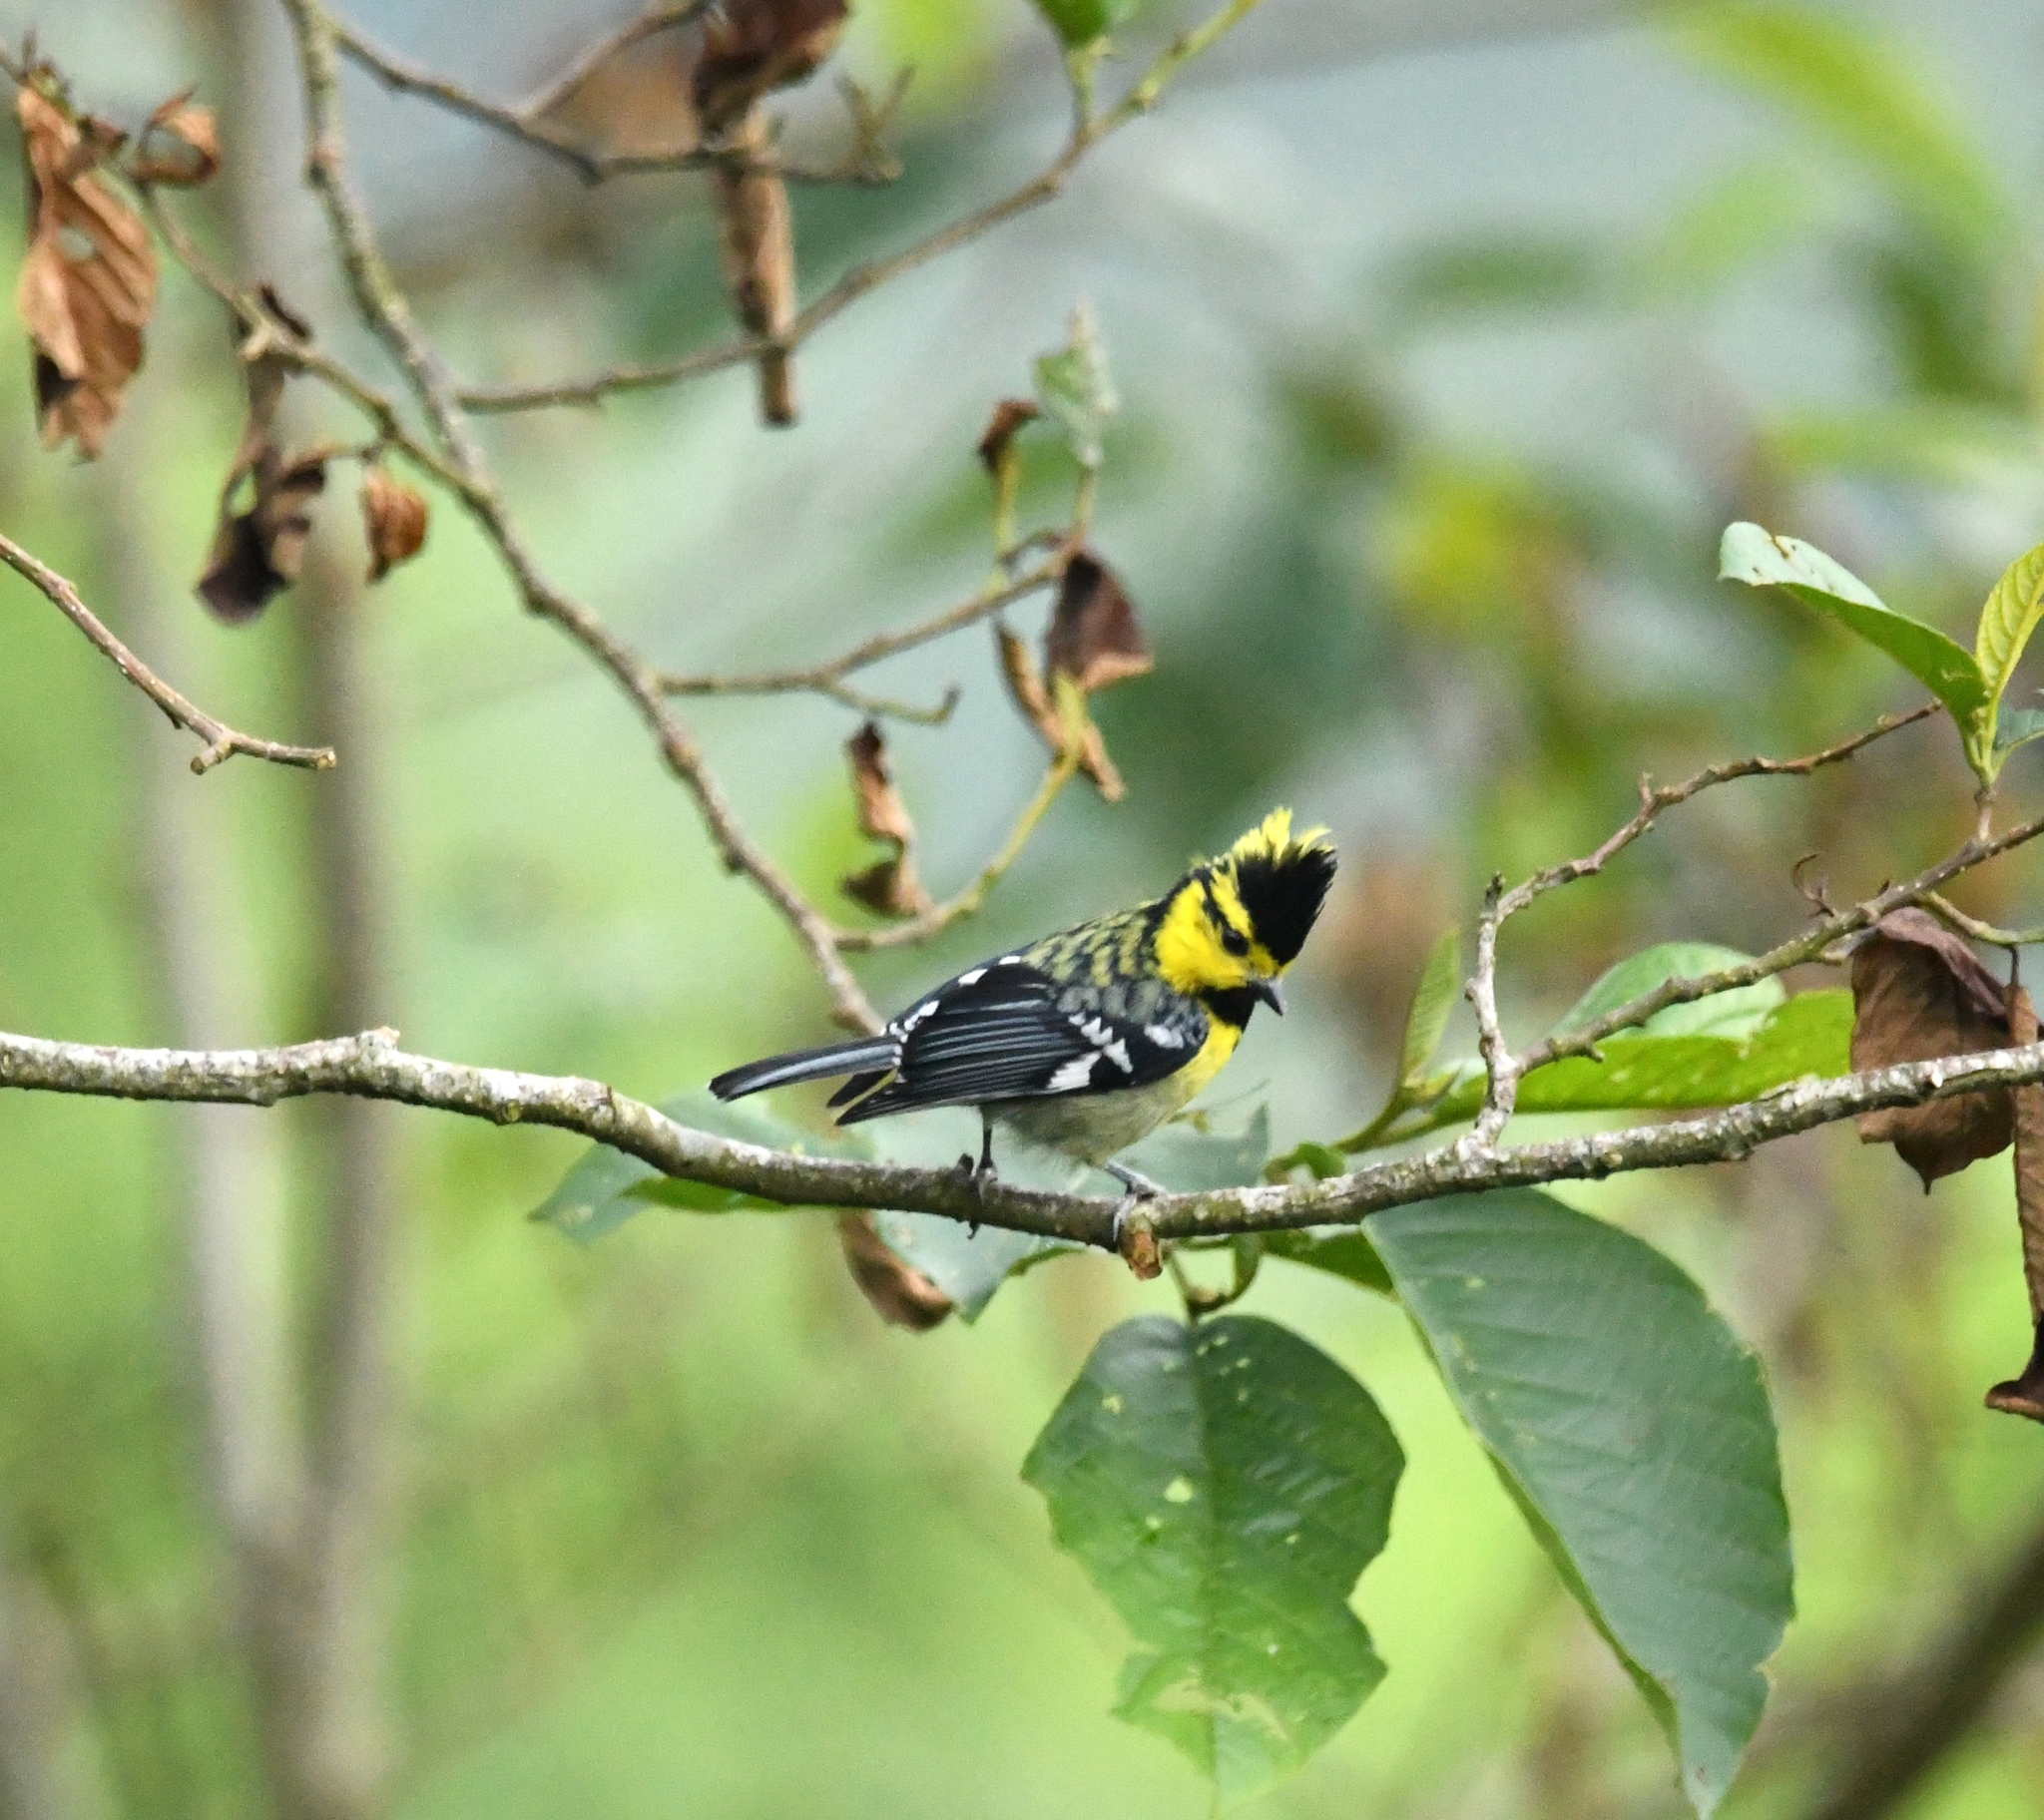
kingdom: Animalia
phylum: Chordata
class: Aves
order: Passeriformes
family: Paridae
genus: Parus
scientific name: Parus spilonotus
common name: Yellow-cheeked tit
